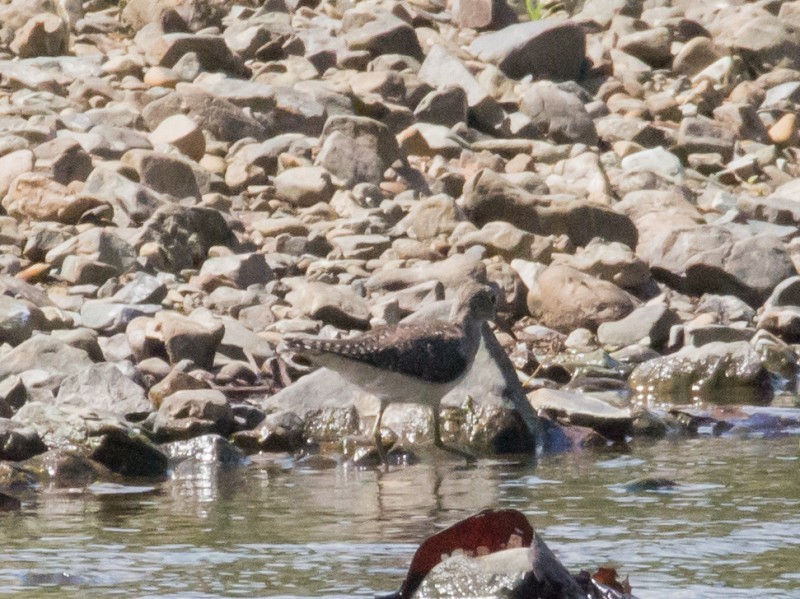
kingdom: Animalia
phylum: Chordata
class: Aves
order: Charadriiformes
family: Scolopacidae
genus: Tringa
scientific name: Tringa solitaria
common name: Solitary sandpiper
